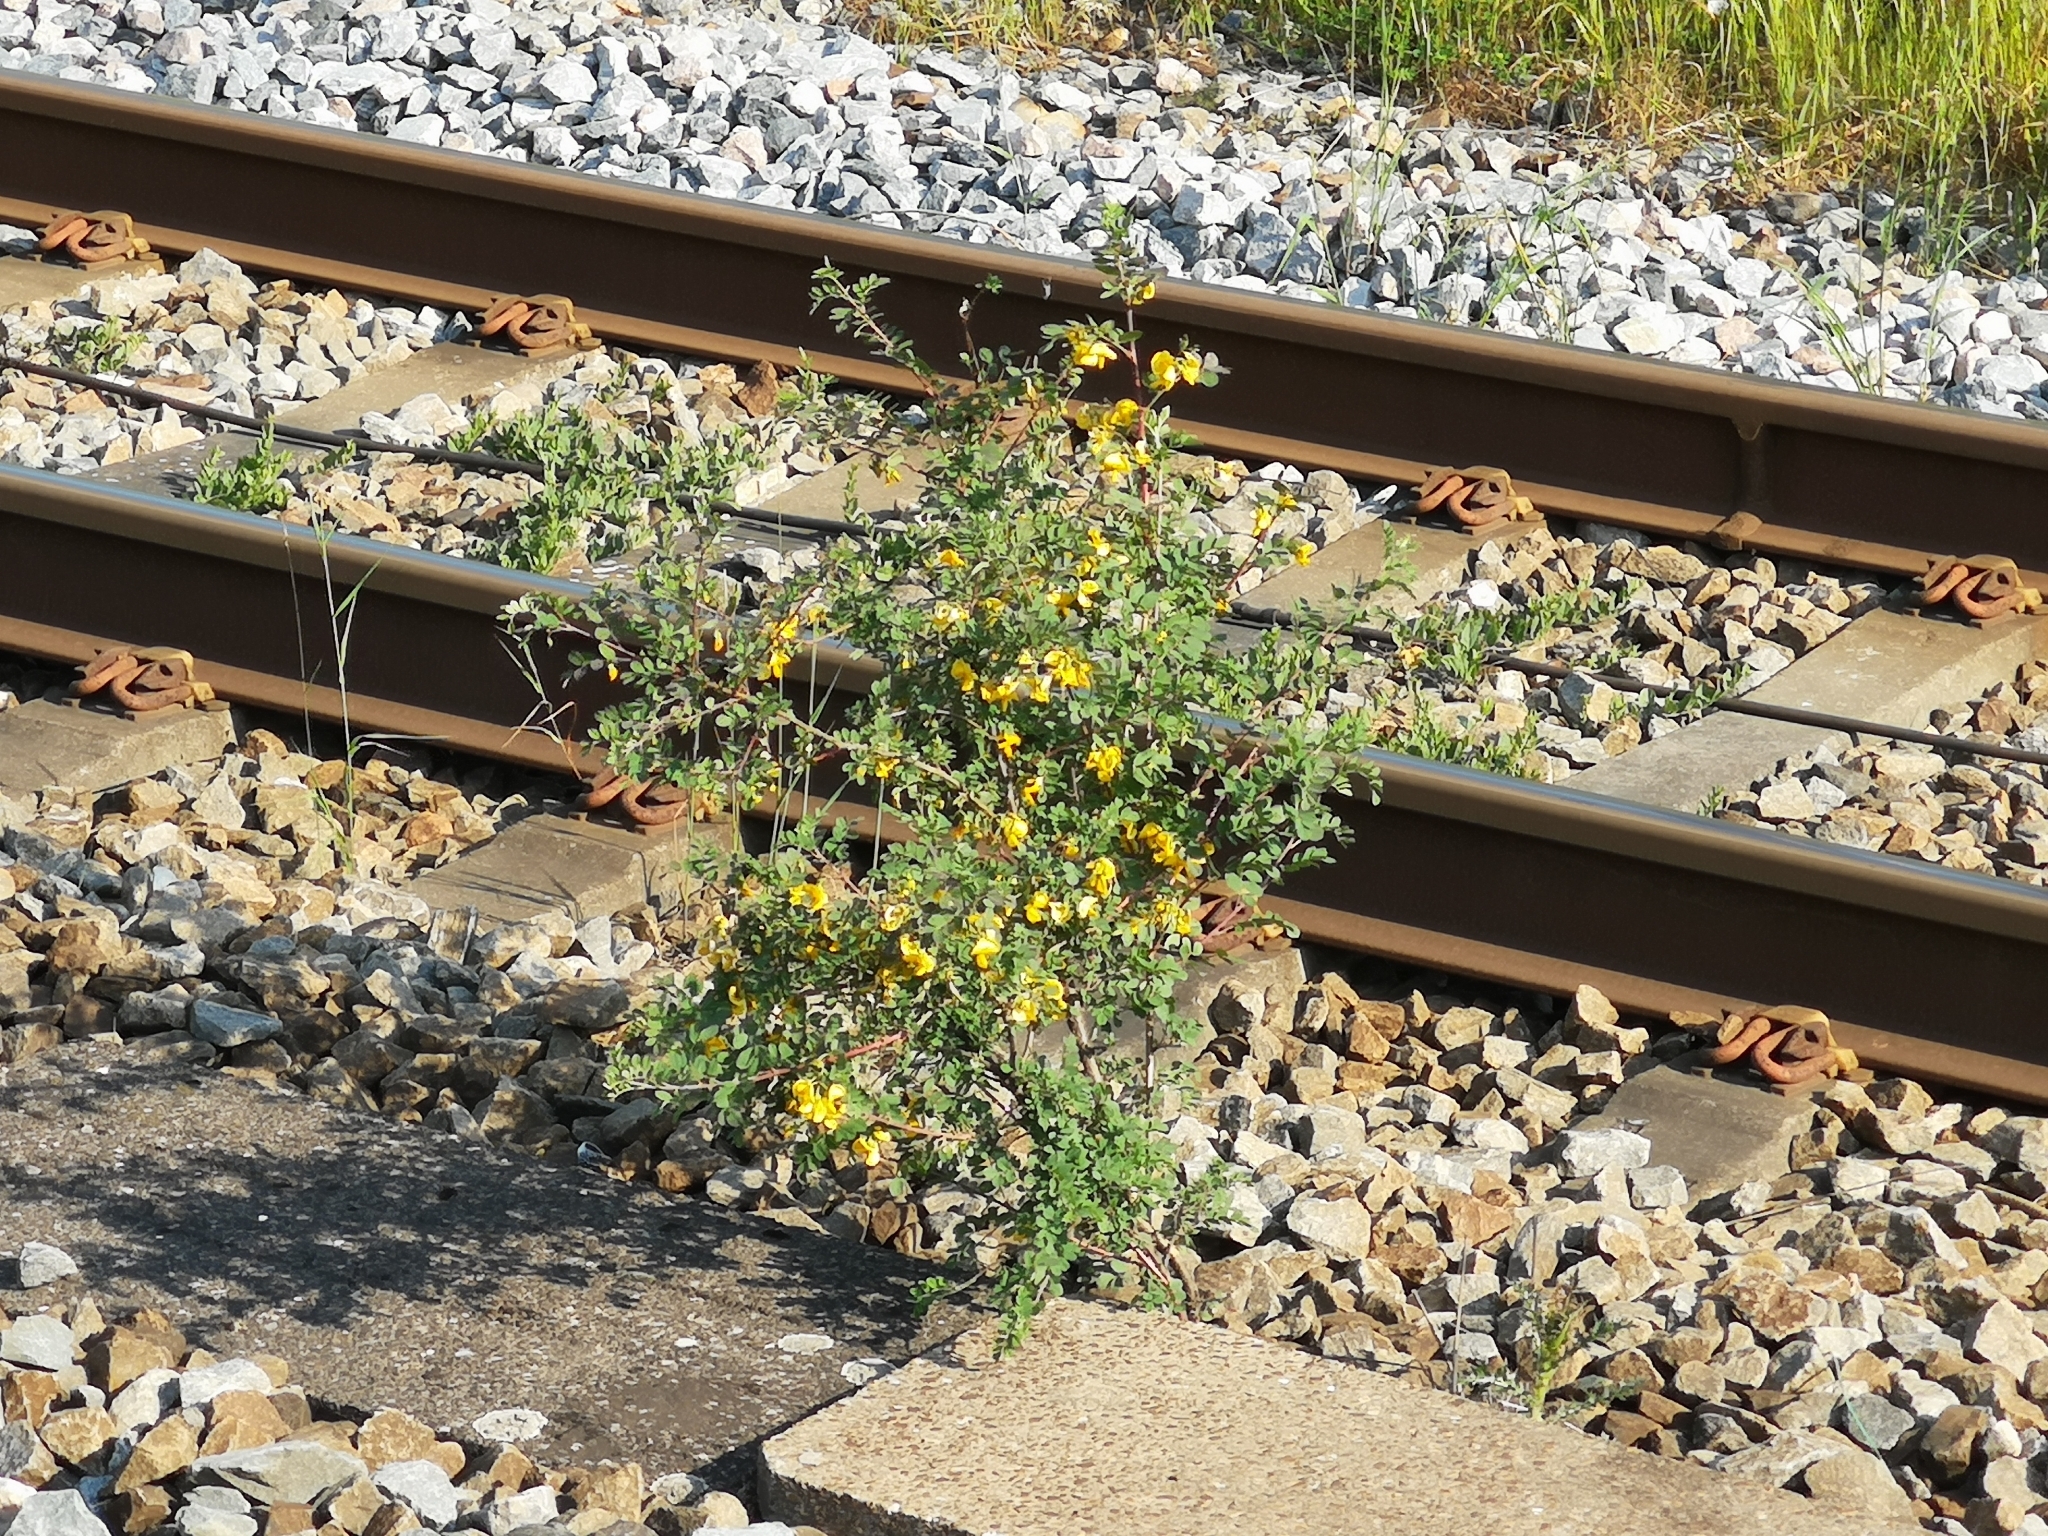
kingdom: Plantae
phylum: Tracheophyta
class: Magnoliopsida
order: Fabales
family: Fabaceae
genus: Colutea
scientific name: Colutea arborescens
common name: Bladder-senna
